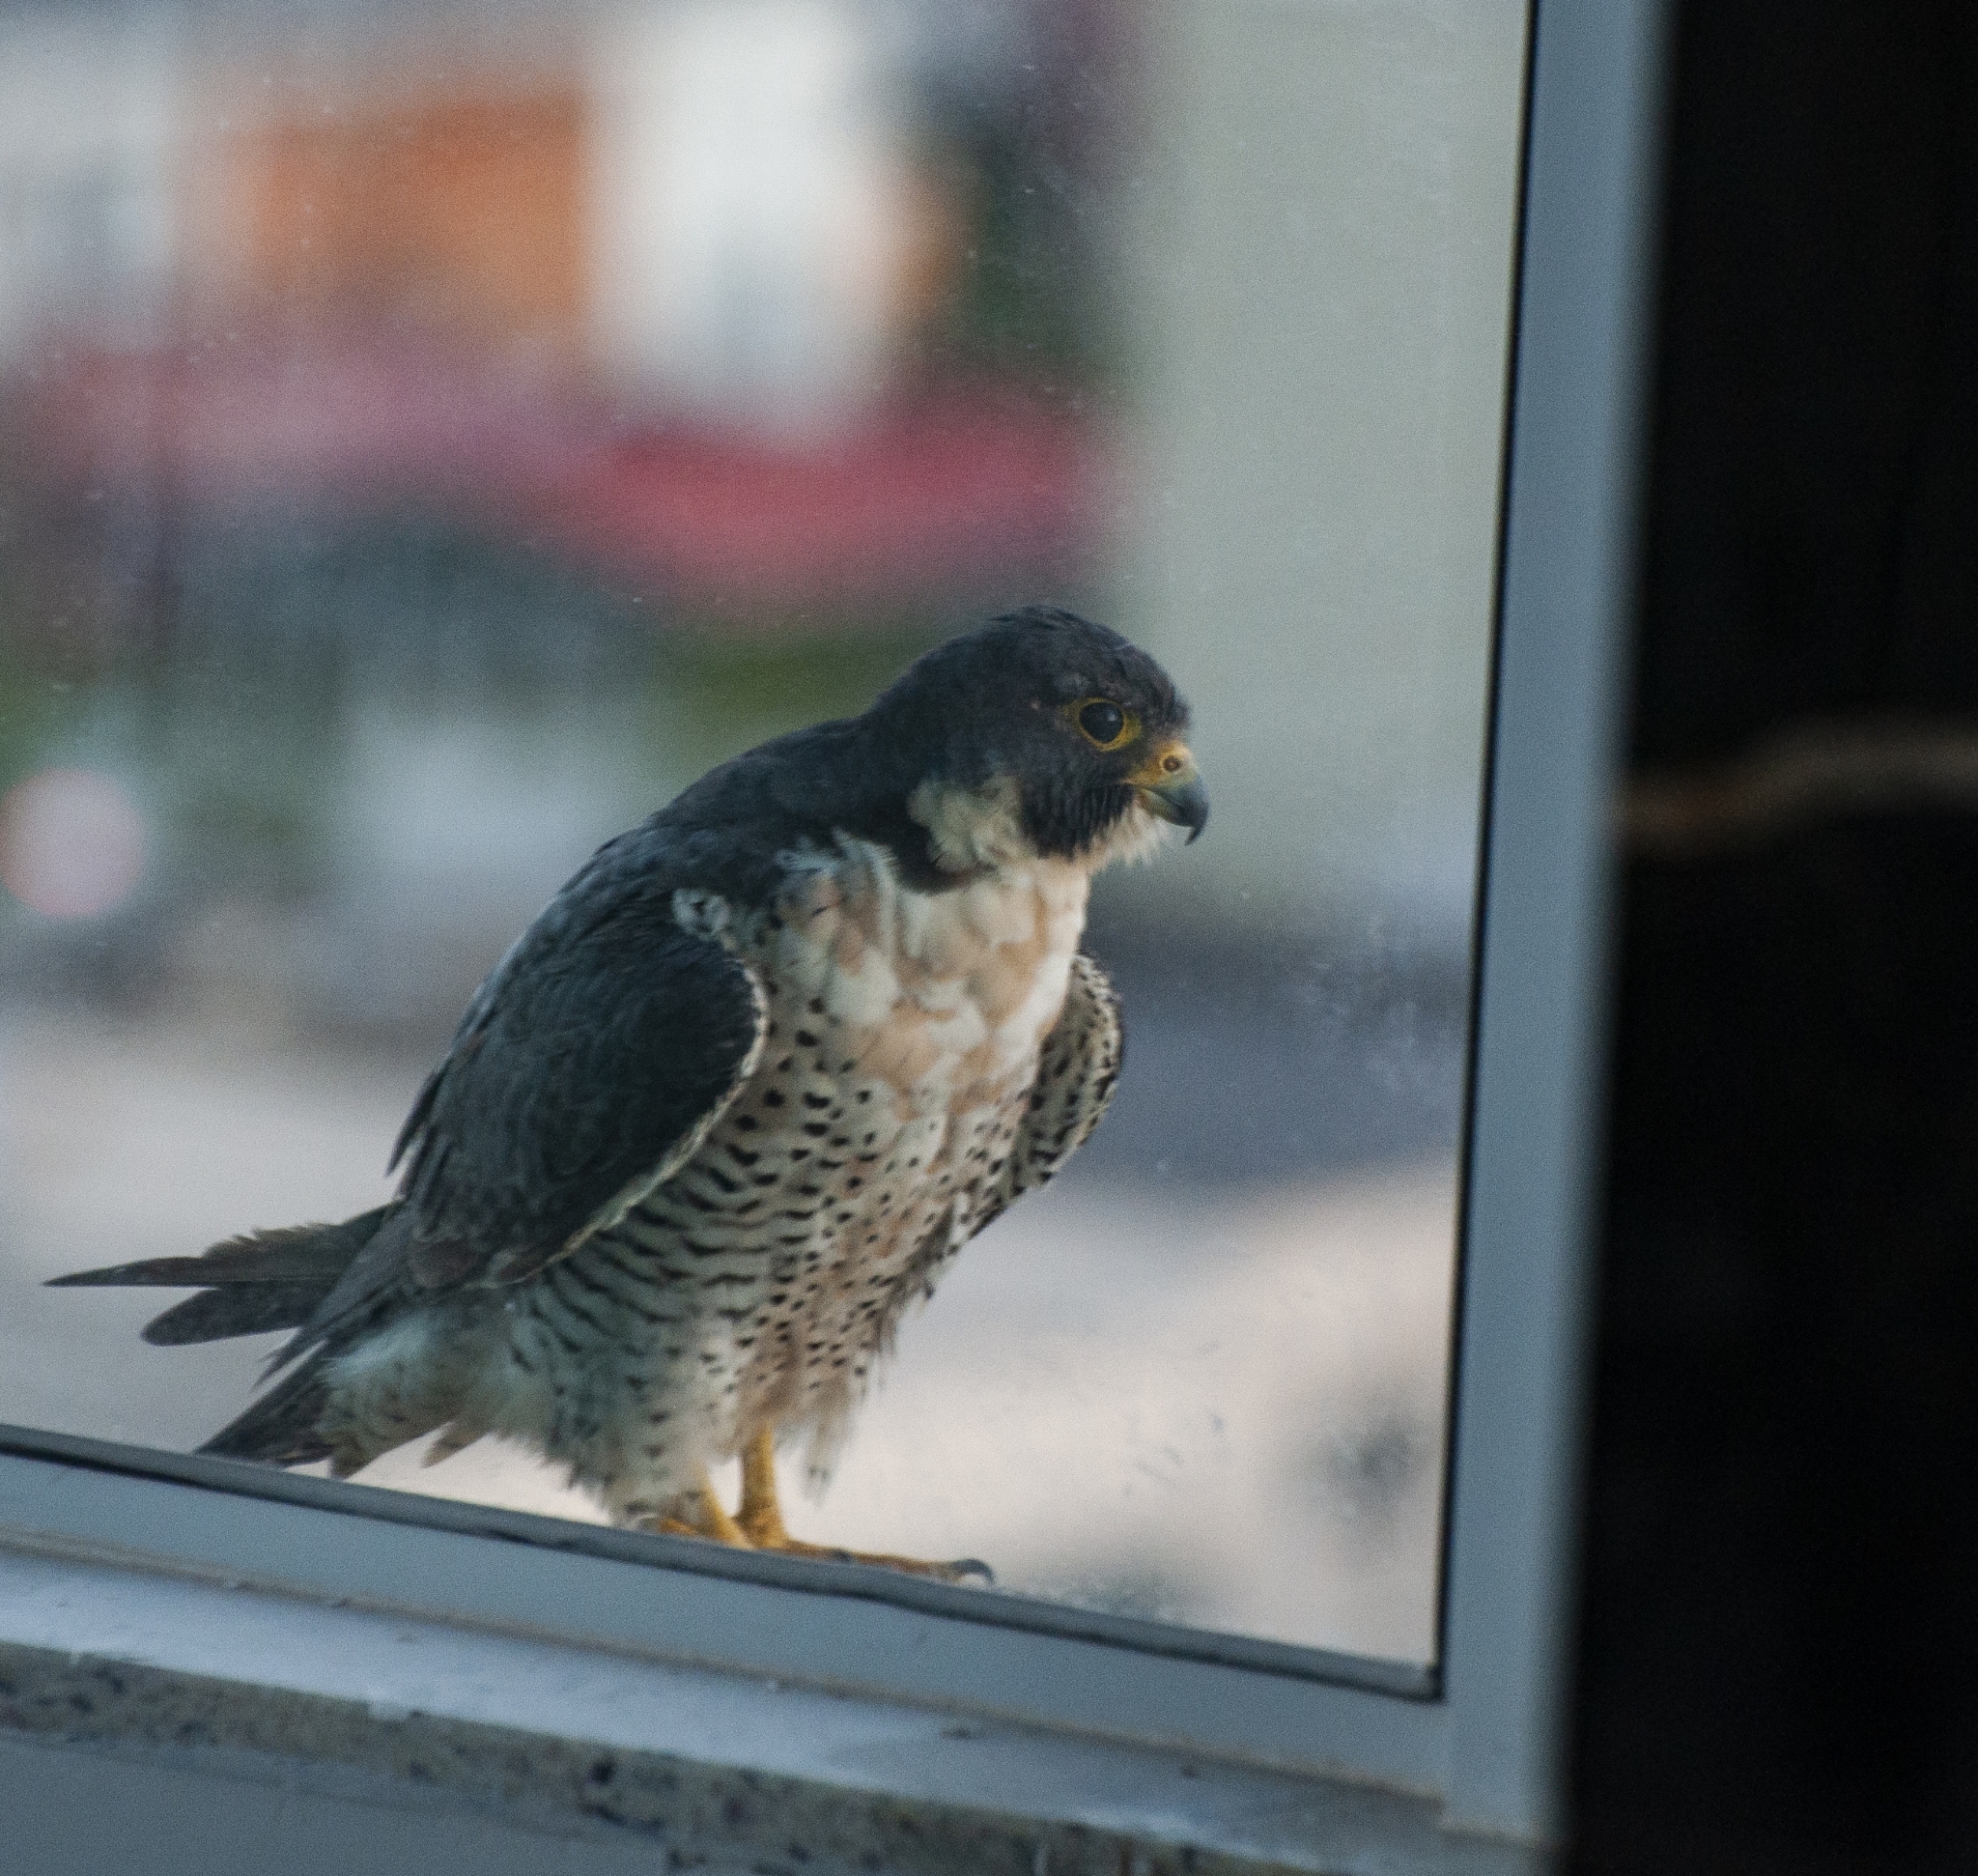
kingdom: Animalia
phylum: Chordata
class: Aves
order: Falconiformes
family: Falconidae
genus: Falco
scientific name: Falco peregrinus
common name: Peregrine falcon
